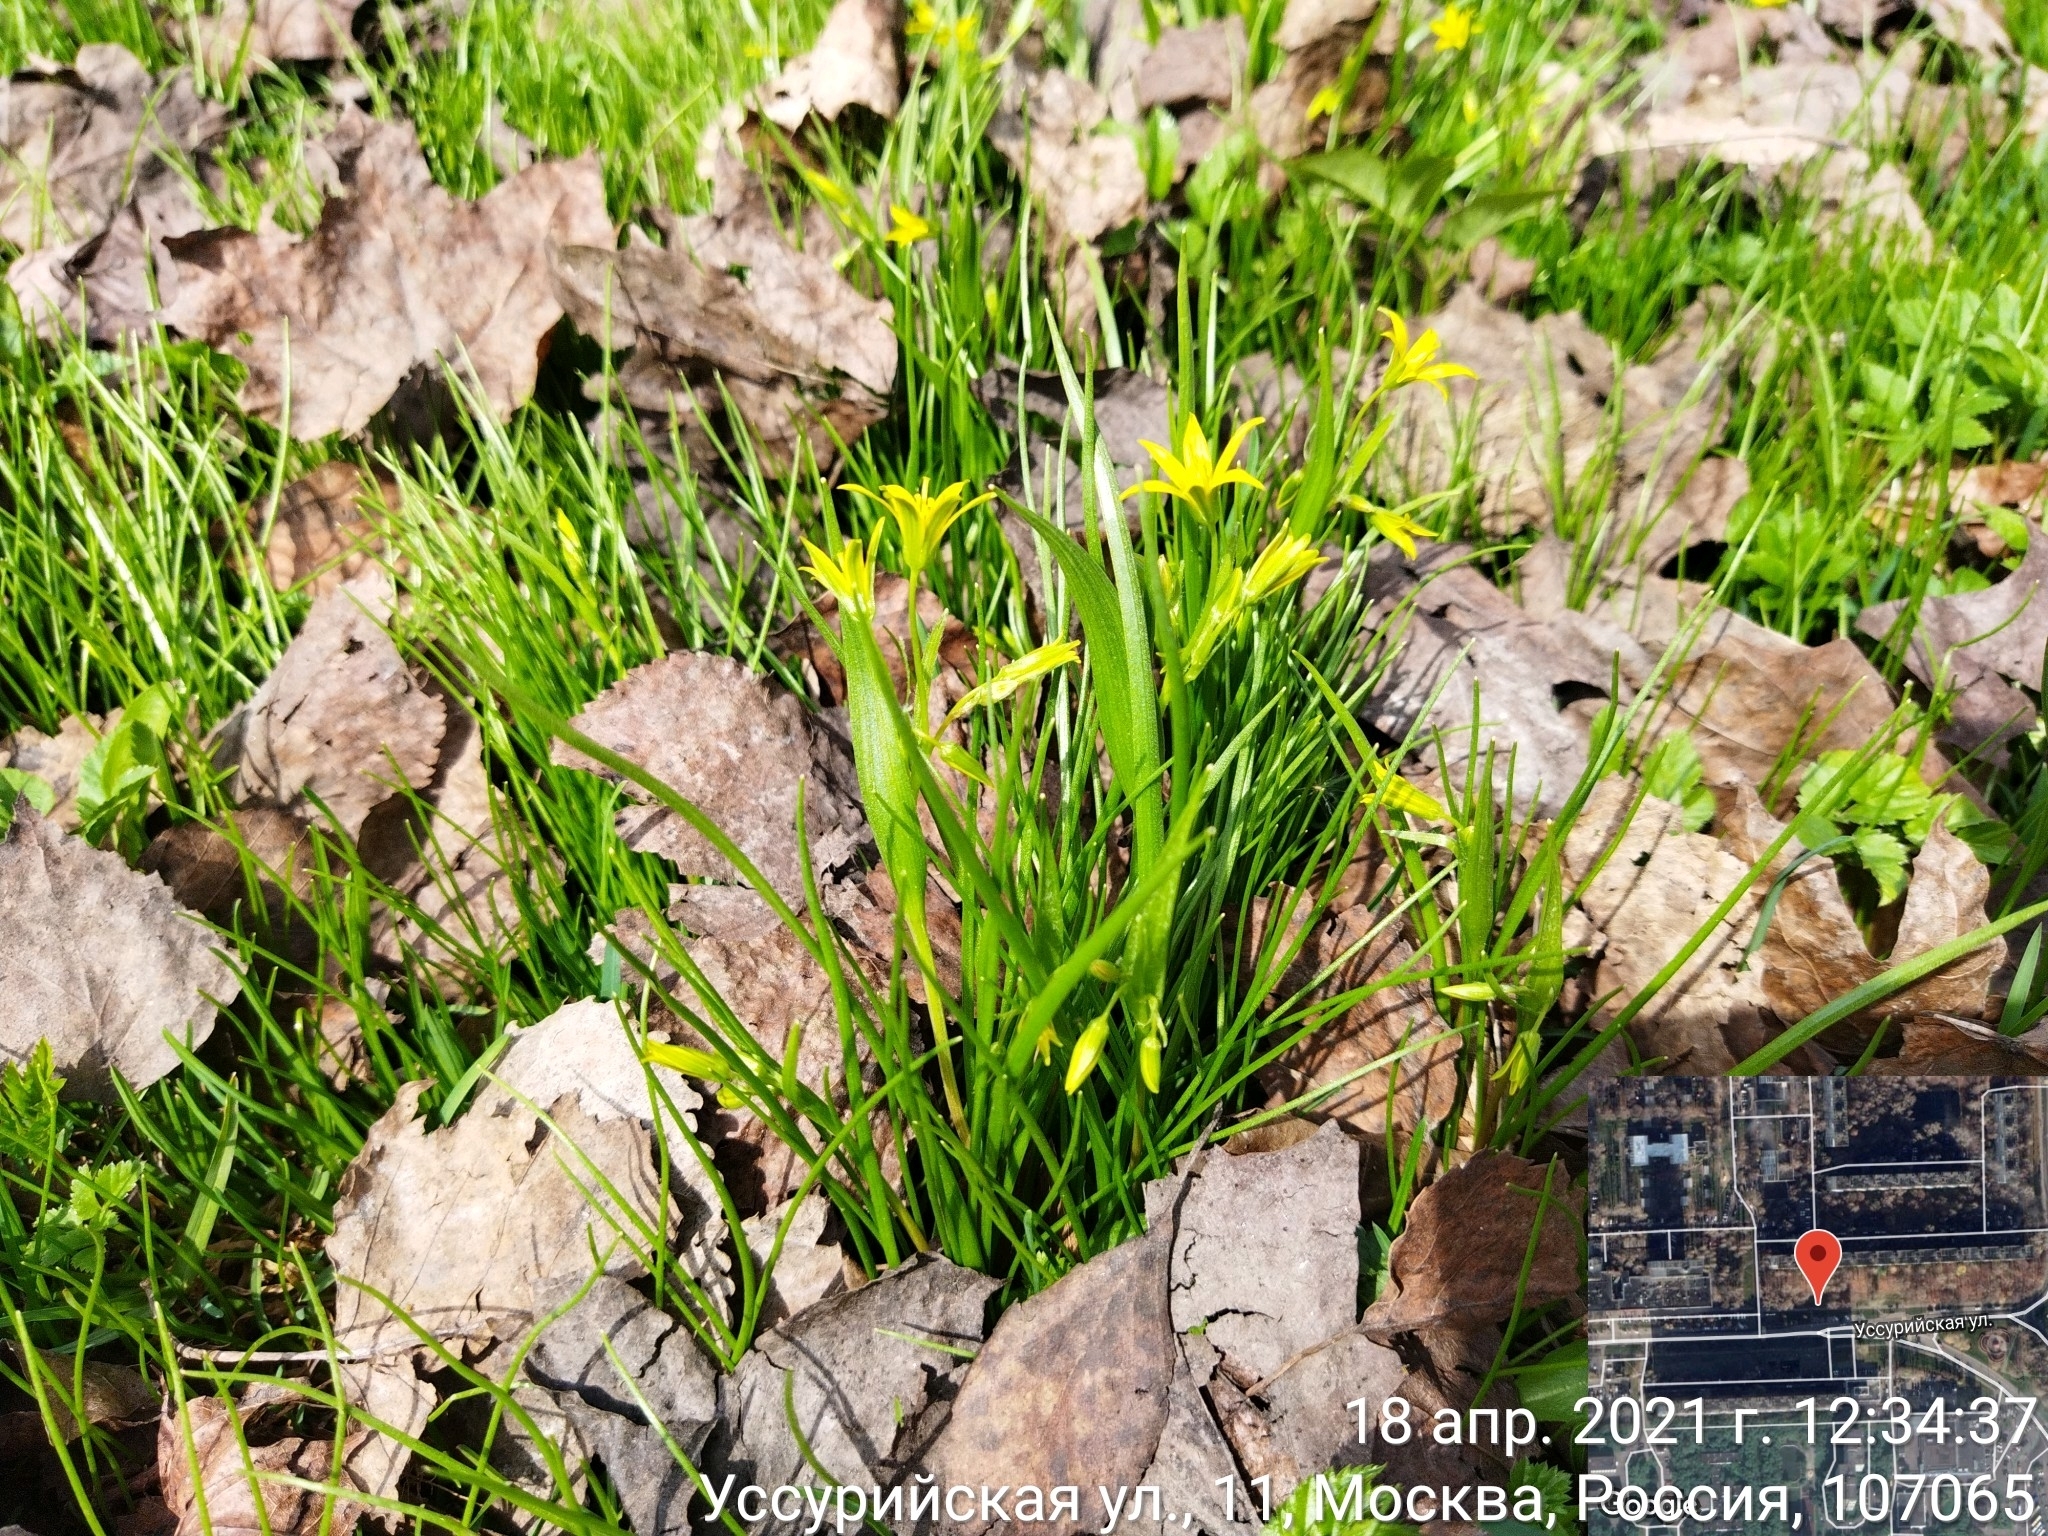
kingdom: Plantae
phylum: Tracheophyta
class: Liliopsida
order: Liliales
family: Liliaceae
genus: Gagea
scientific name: Gagea minima
